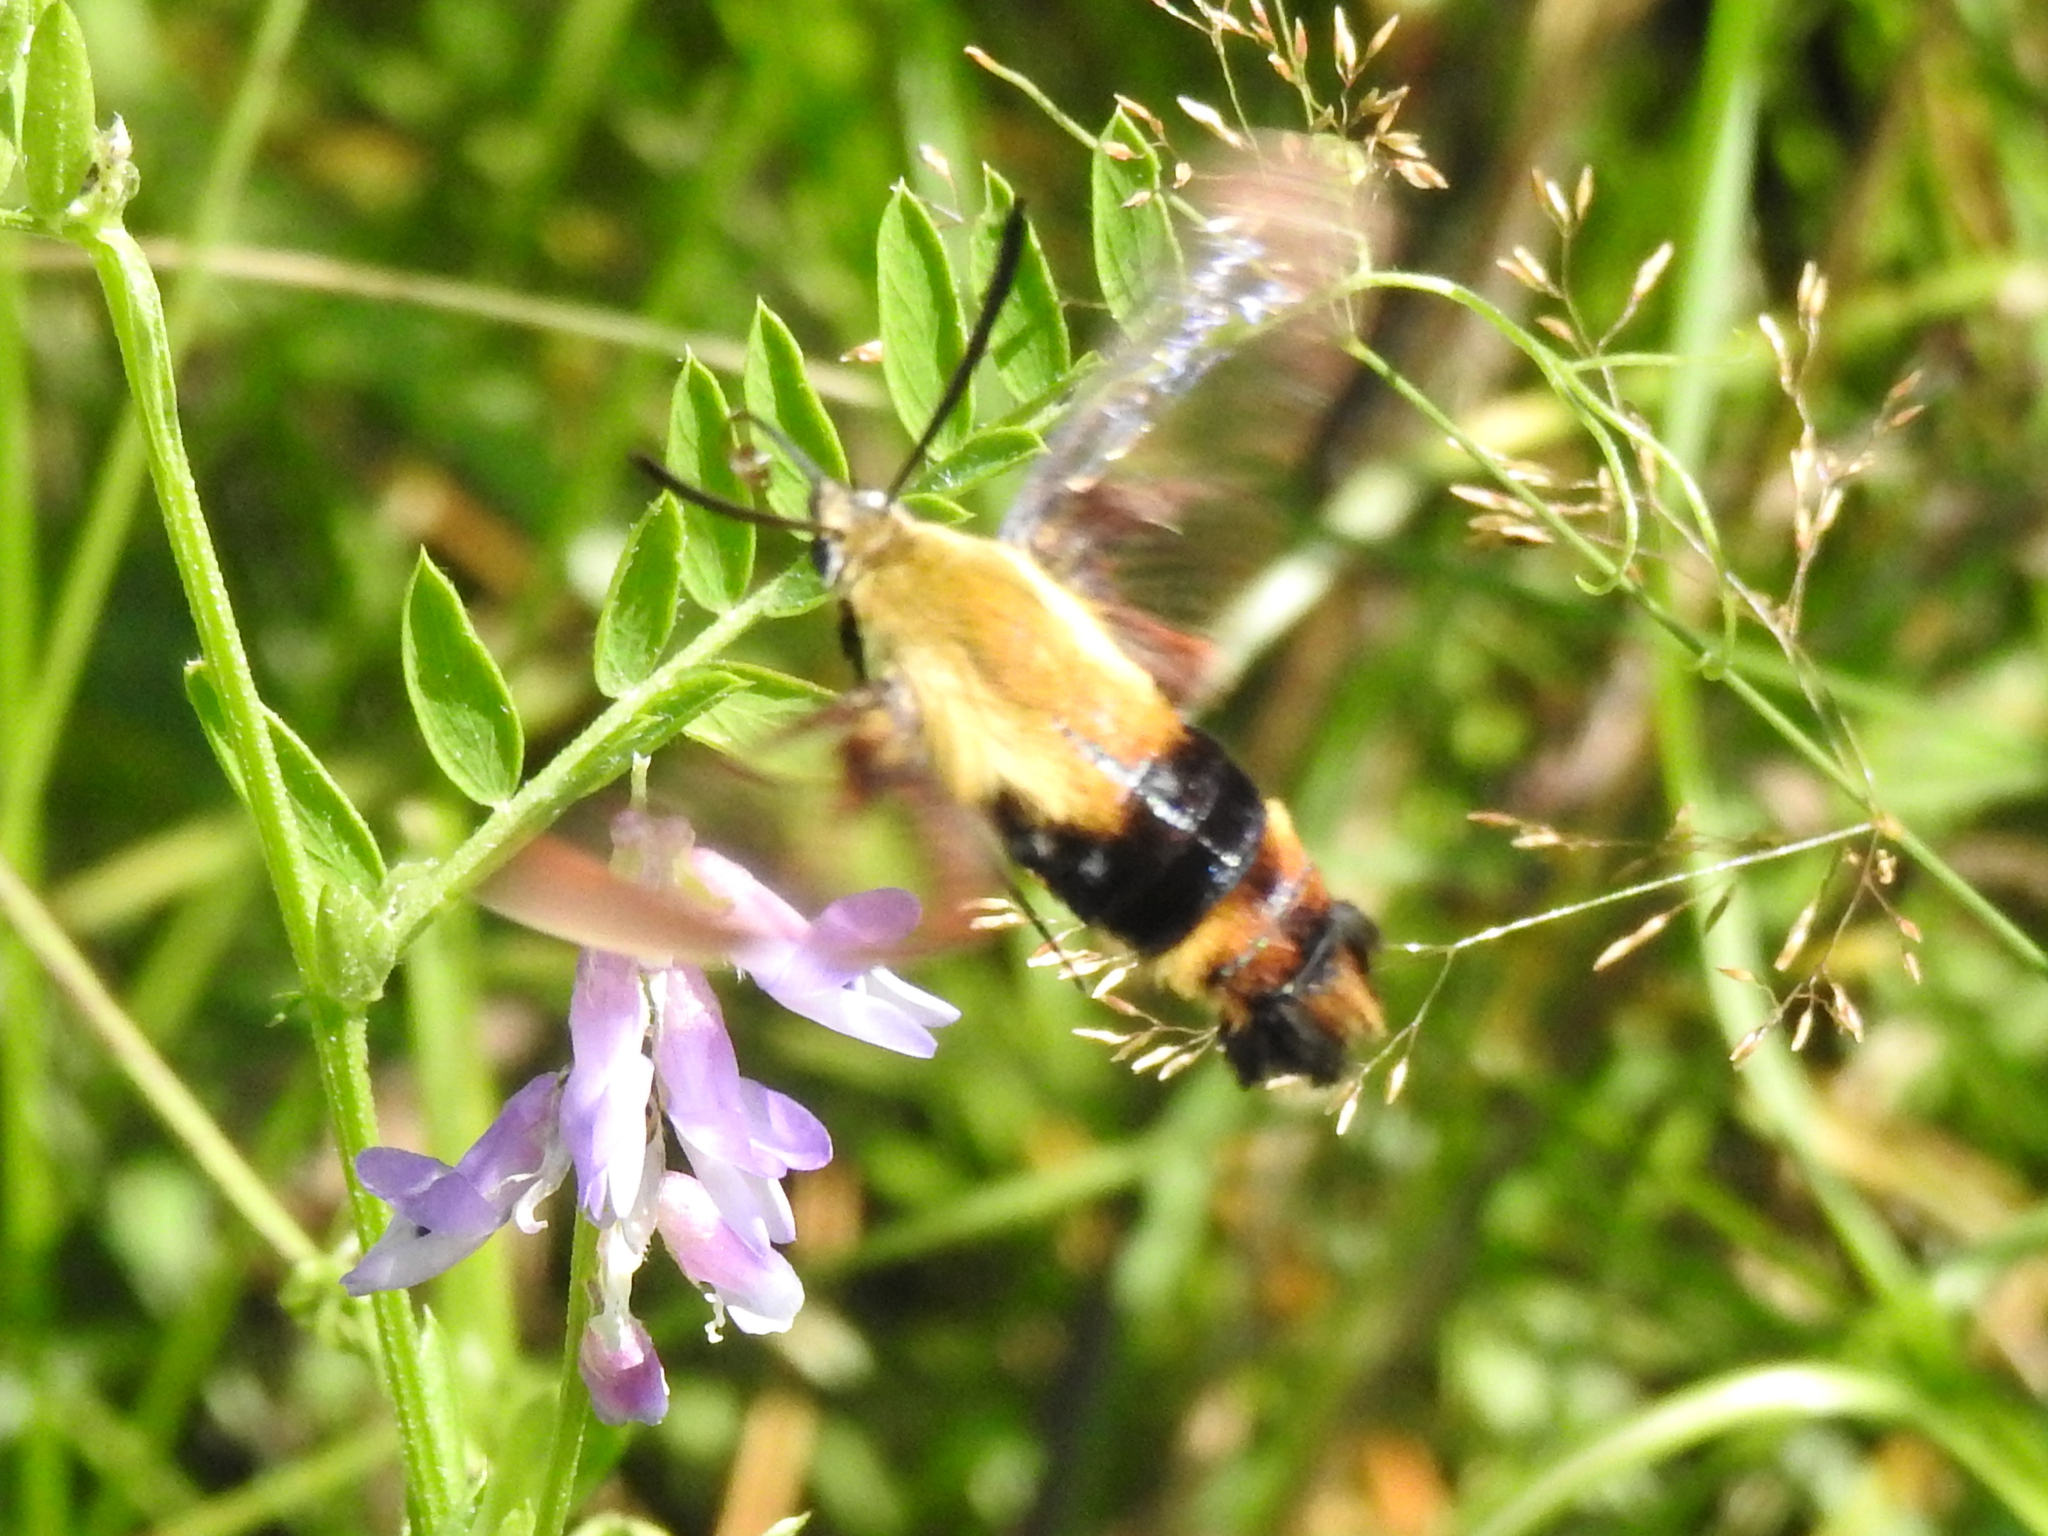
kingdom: Animalia
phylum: Arthropoda
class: Insecta
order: Lepidoptera
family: Sphingidae
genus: Hemaris
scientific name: Hemaris diffinis
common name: Bumblebee moth
